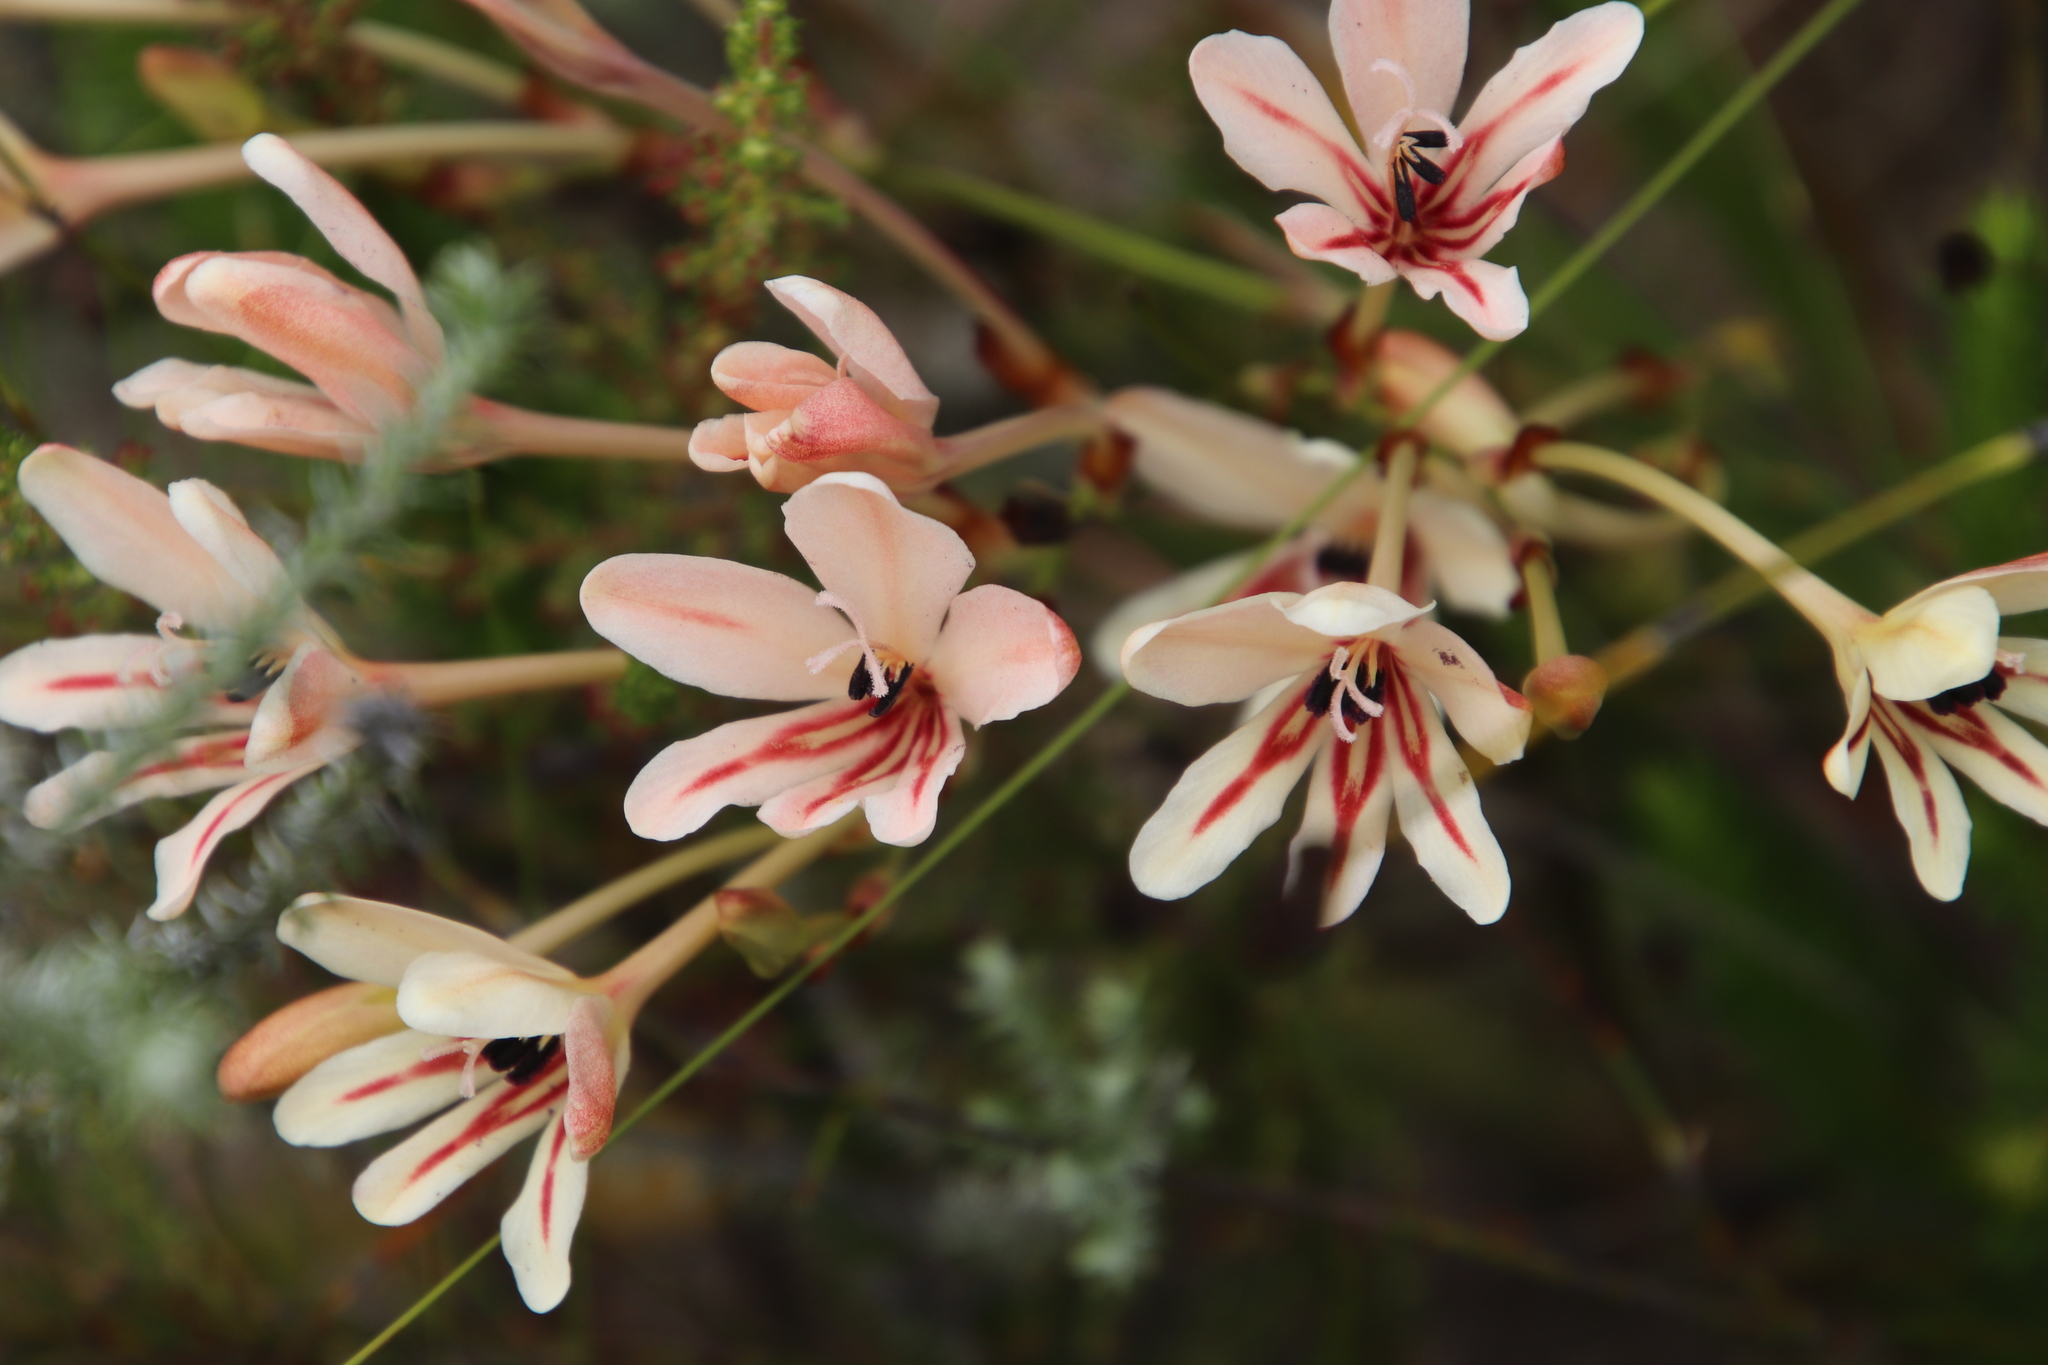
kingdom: Plantae
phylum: Tracheophyta
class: Liliopsida
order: Asparagales
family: Iridaceae
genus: Tritonia
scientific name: Tritonia undulata
